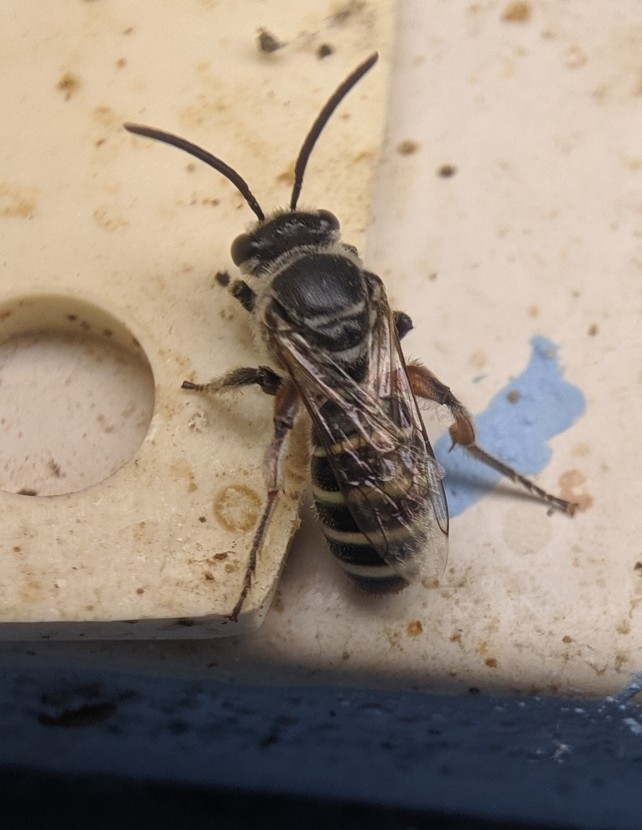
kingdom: Animalia
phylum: Arthropoda
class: Insecta
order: Hymenoptera
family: Halictidae
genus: Nomia
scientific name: Nomia westwoodi
